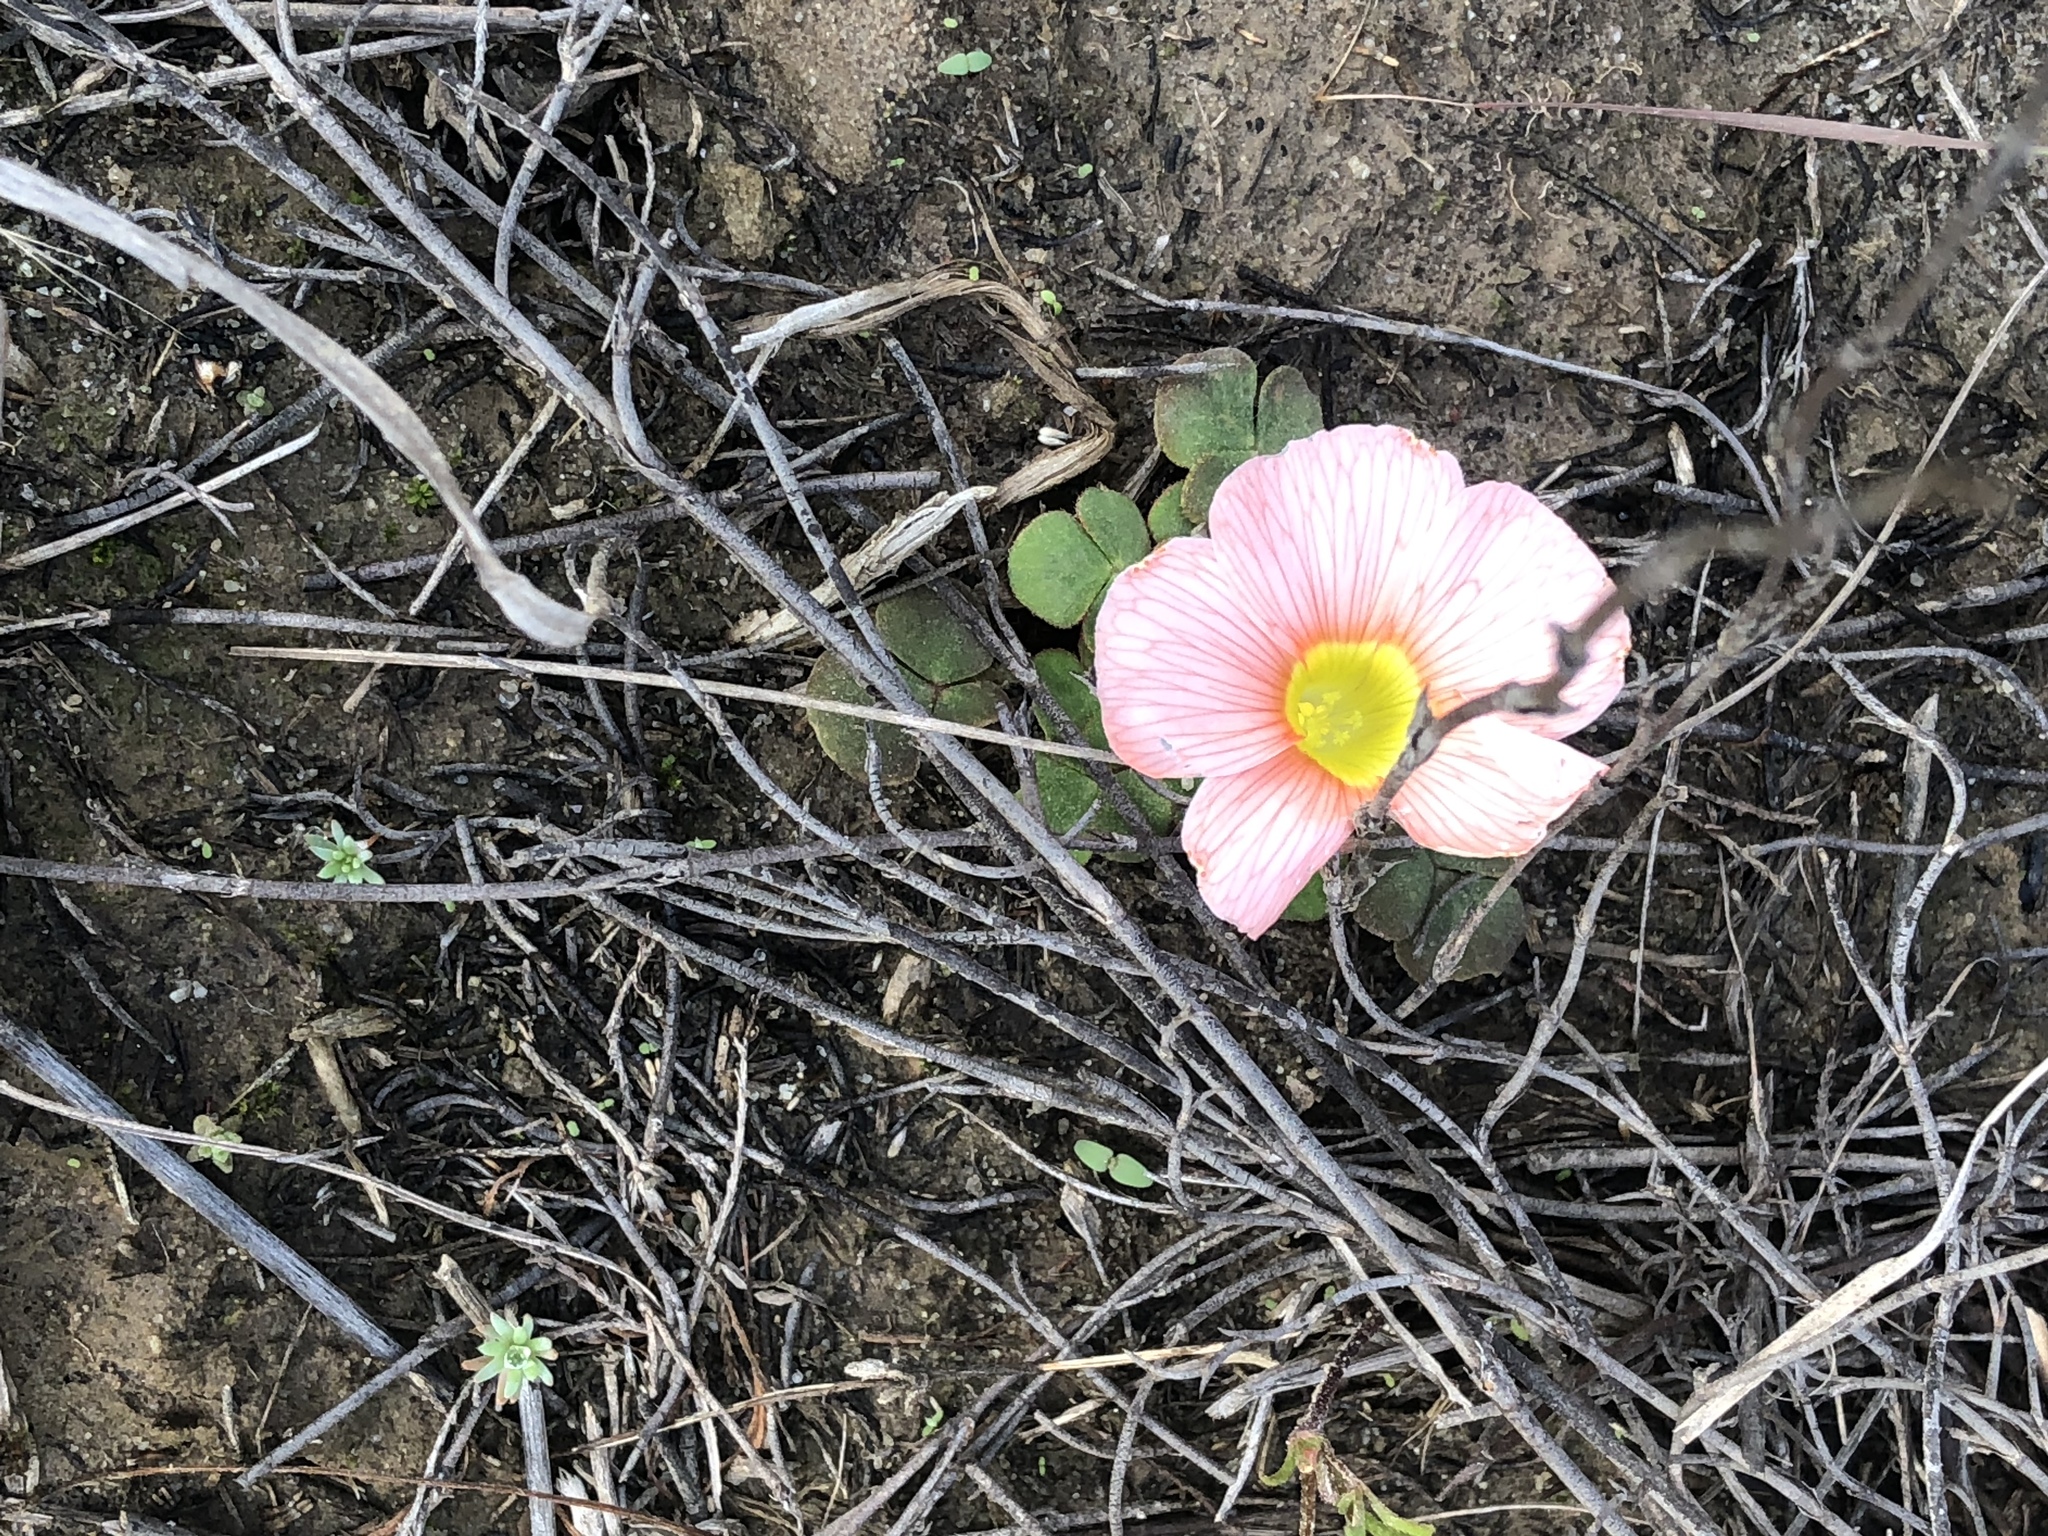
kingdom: Plantae
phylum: Tracheophyta
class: Magnoliopsida
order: Oxalidales
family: Oxalidaceae
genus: Oxalis
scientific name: Oxalis pulchella
